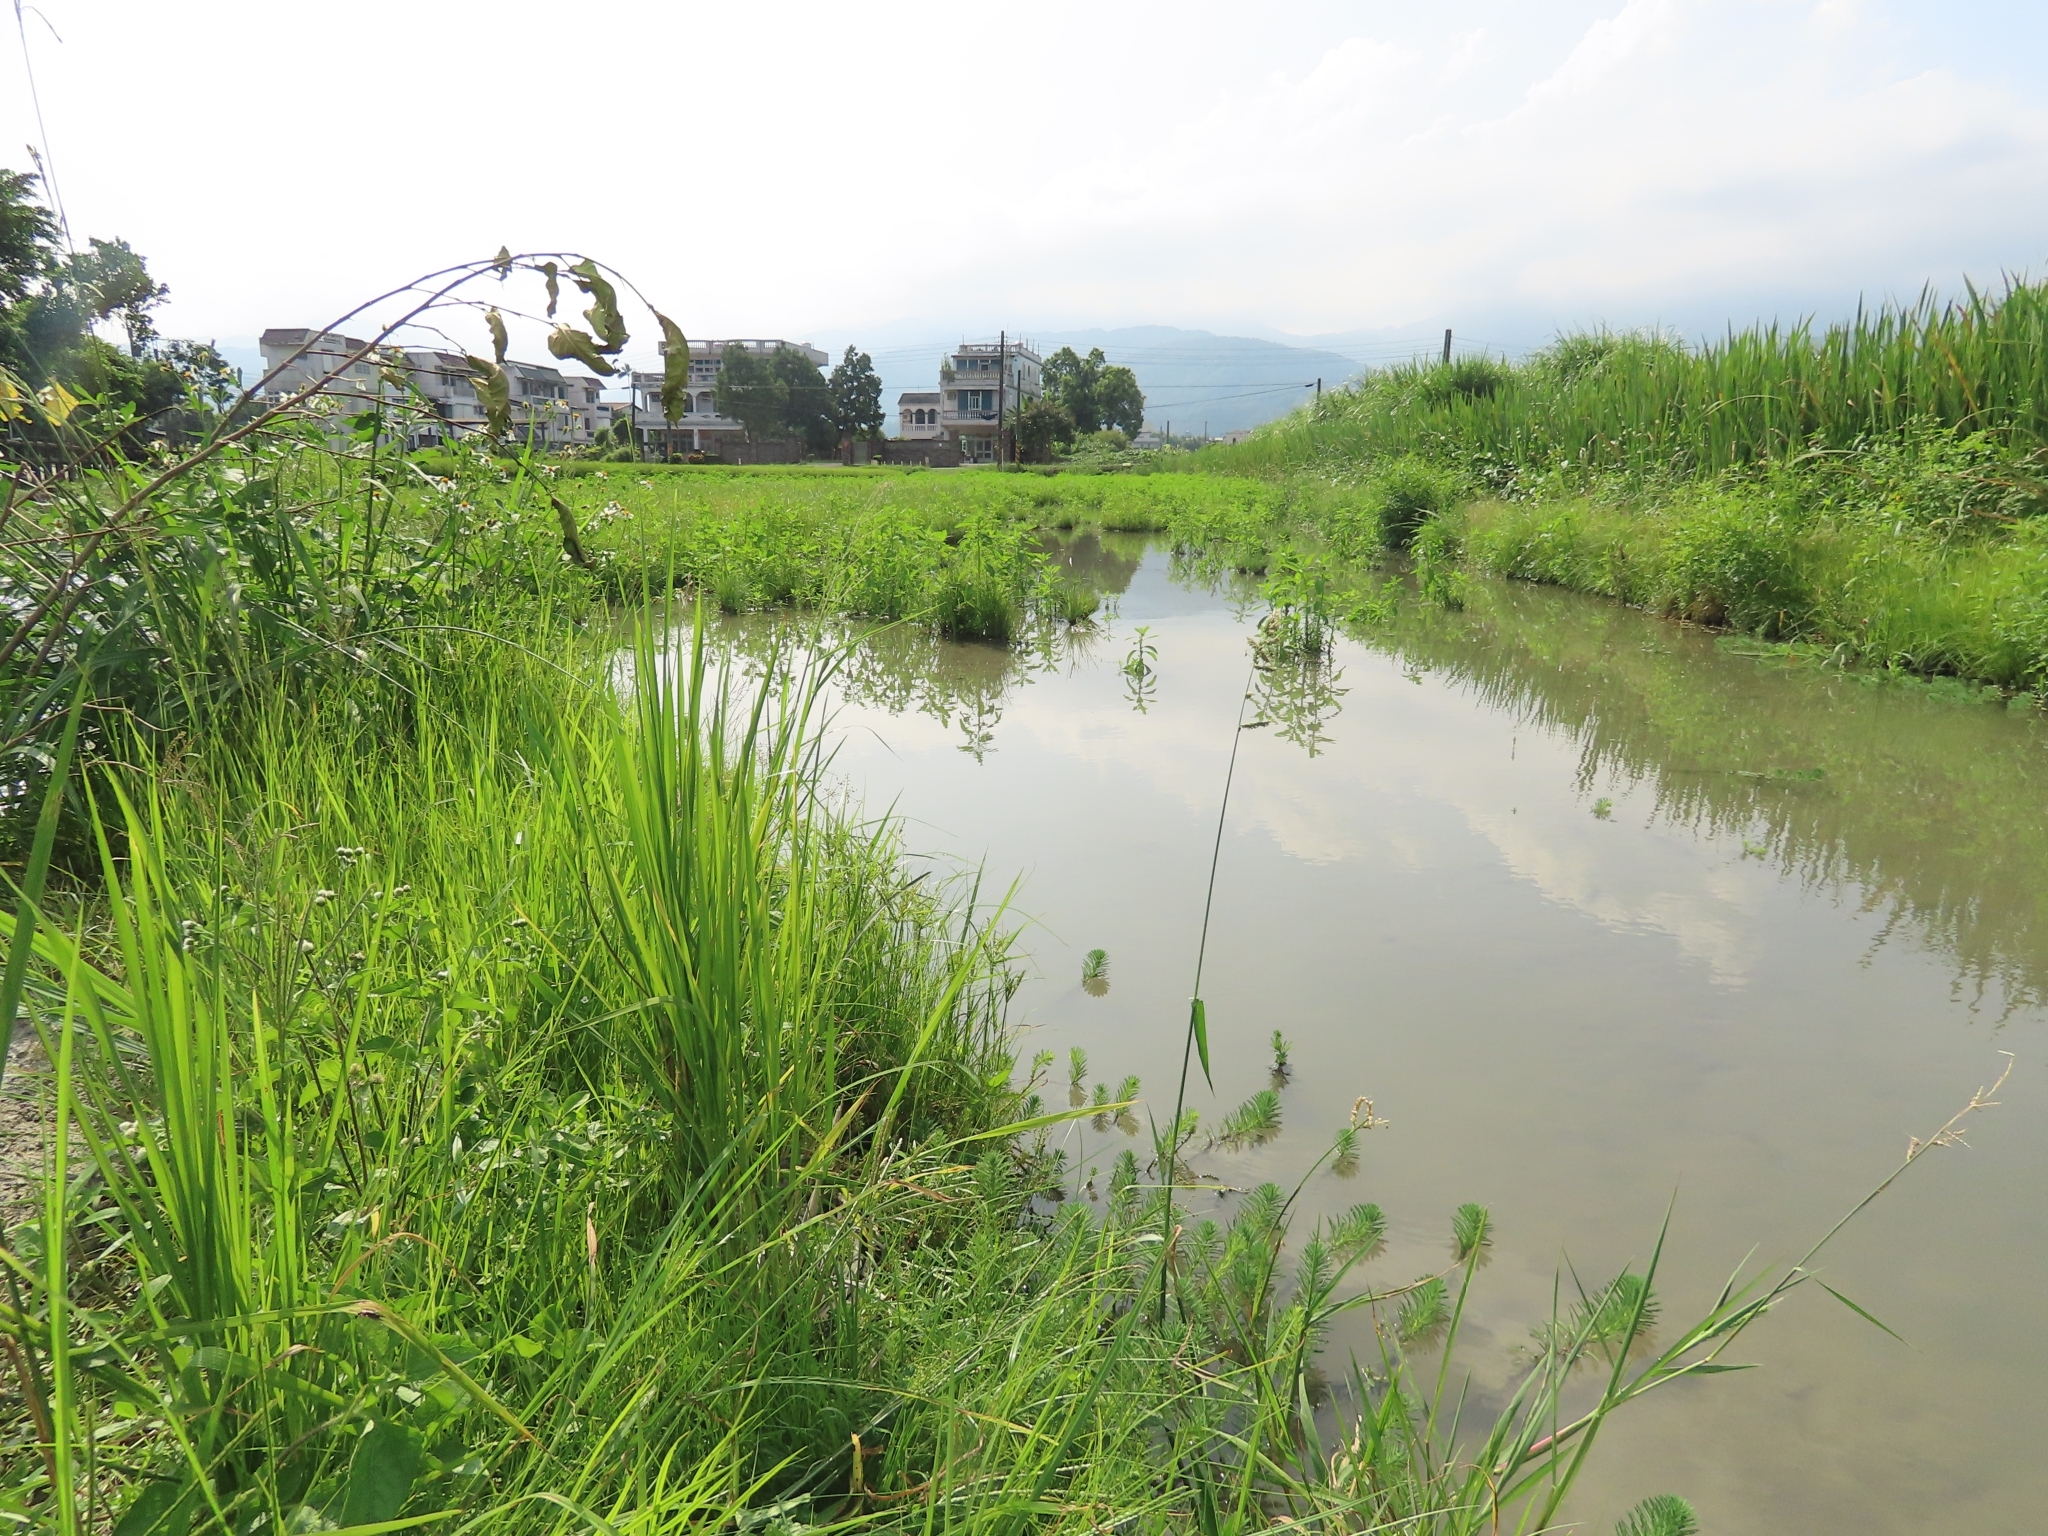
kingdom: Plantae
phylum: Tracheophyta
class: Magnoliopsida
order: Saxifragales
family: Haloragaceae
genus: Myriophyllum
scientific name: Myriophyllum aquaticum
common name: Parrot's feather
